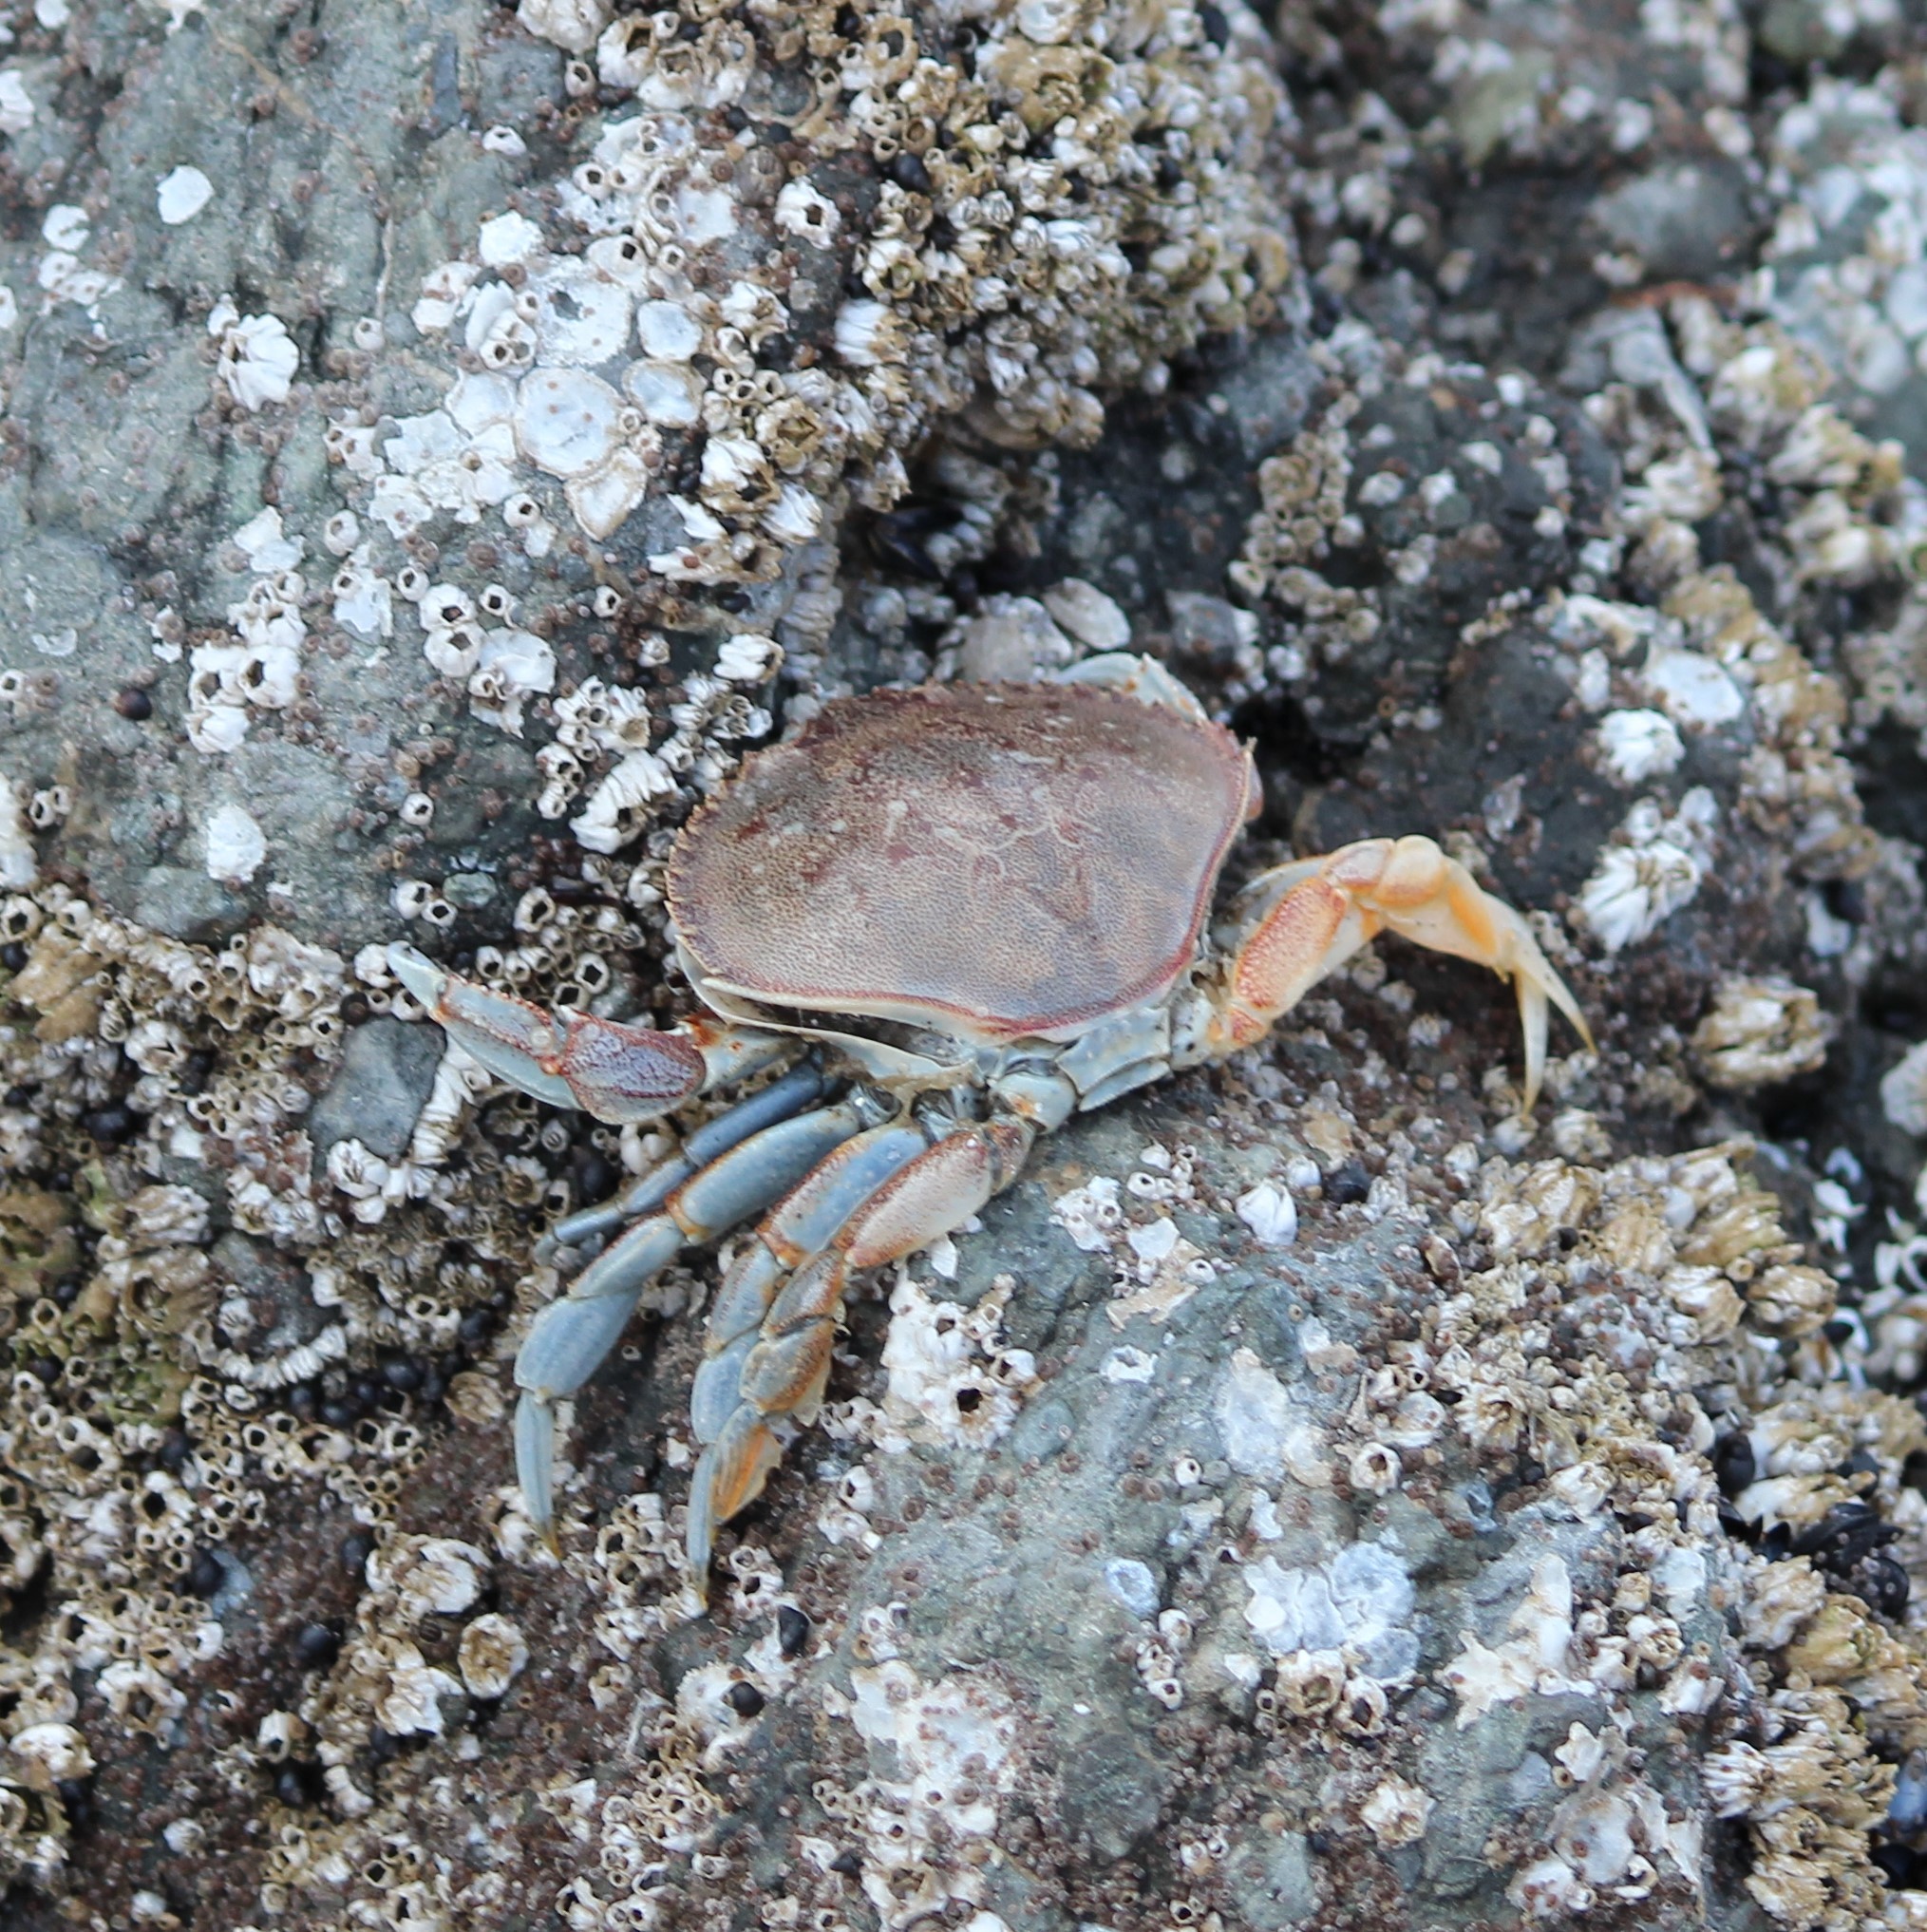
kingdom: Animalia
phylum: Arthropoda
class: Malacostraca
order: Decapoda
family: Cancridae
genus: Metacarcinus
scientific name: Metacarcinus magister
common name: Californian crab
